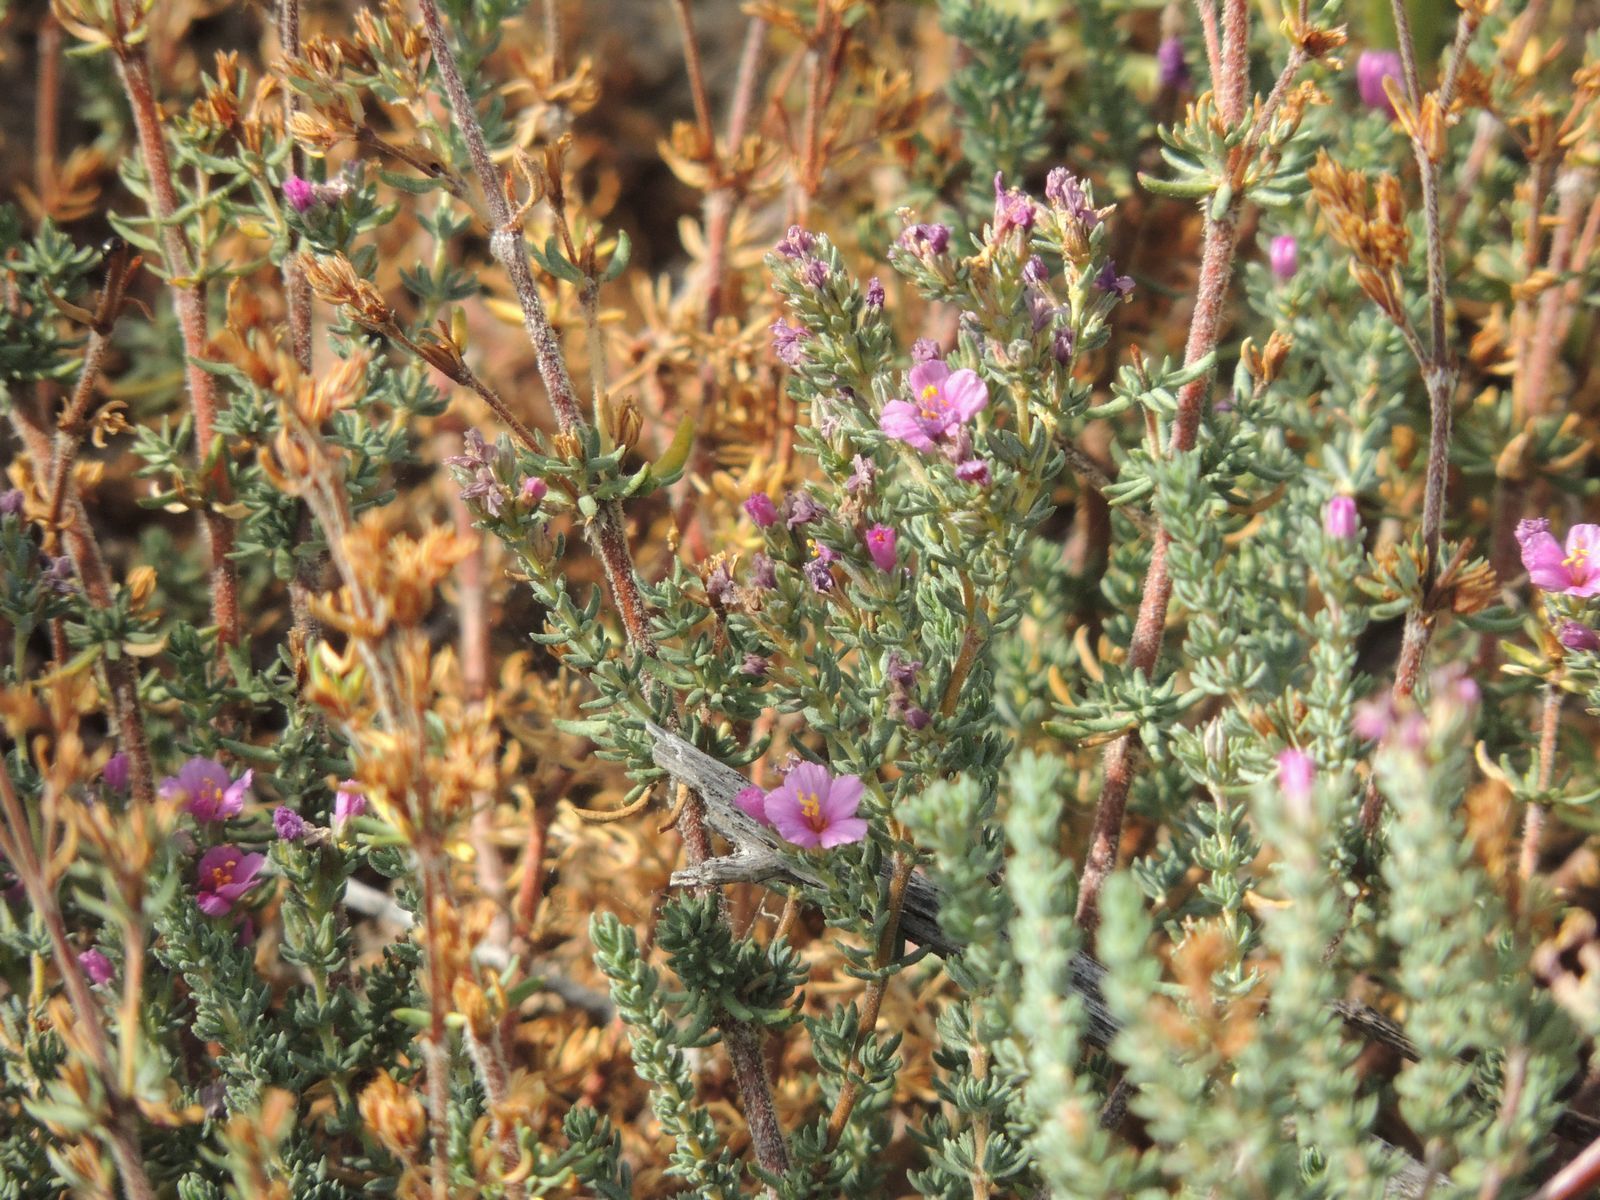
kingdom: Plantae
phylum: Tracheophyta
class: Magnoliopsida
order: Caryophyllales
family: Frankeniaceae
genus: Frankenia
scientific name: Frankenia hirsuta
